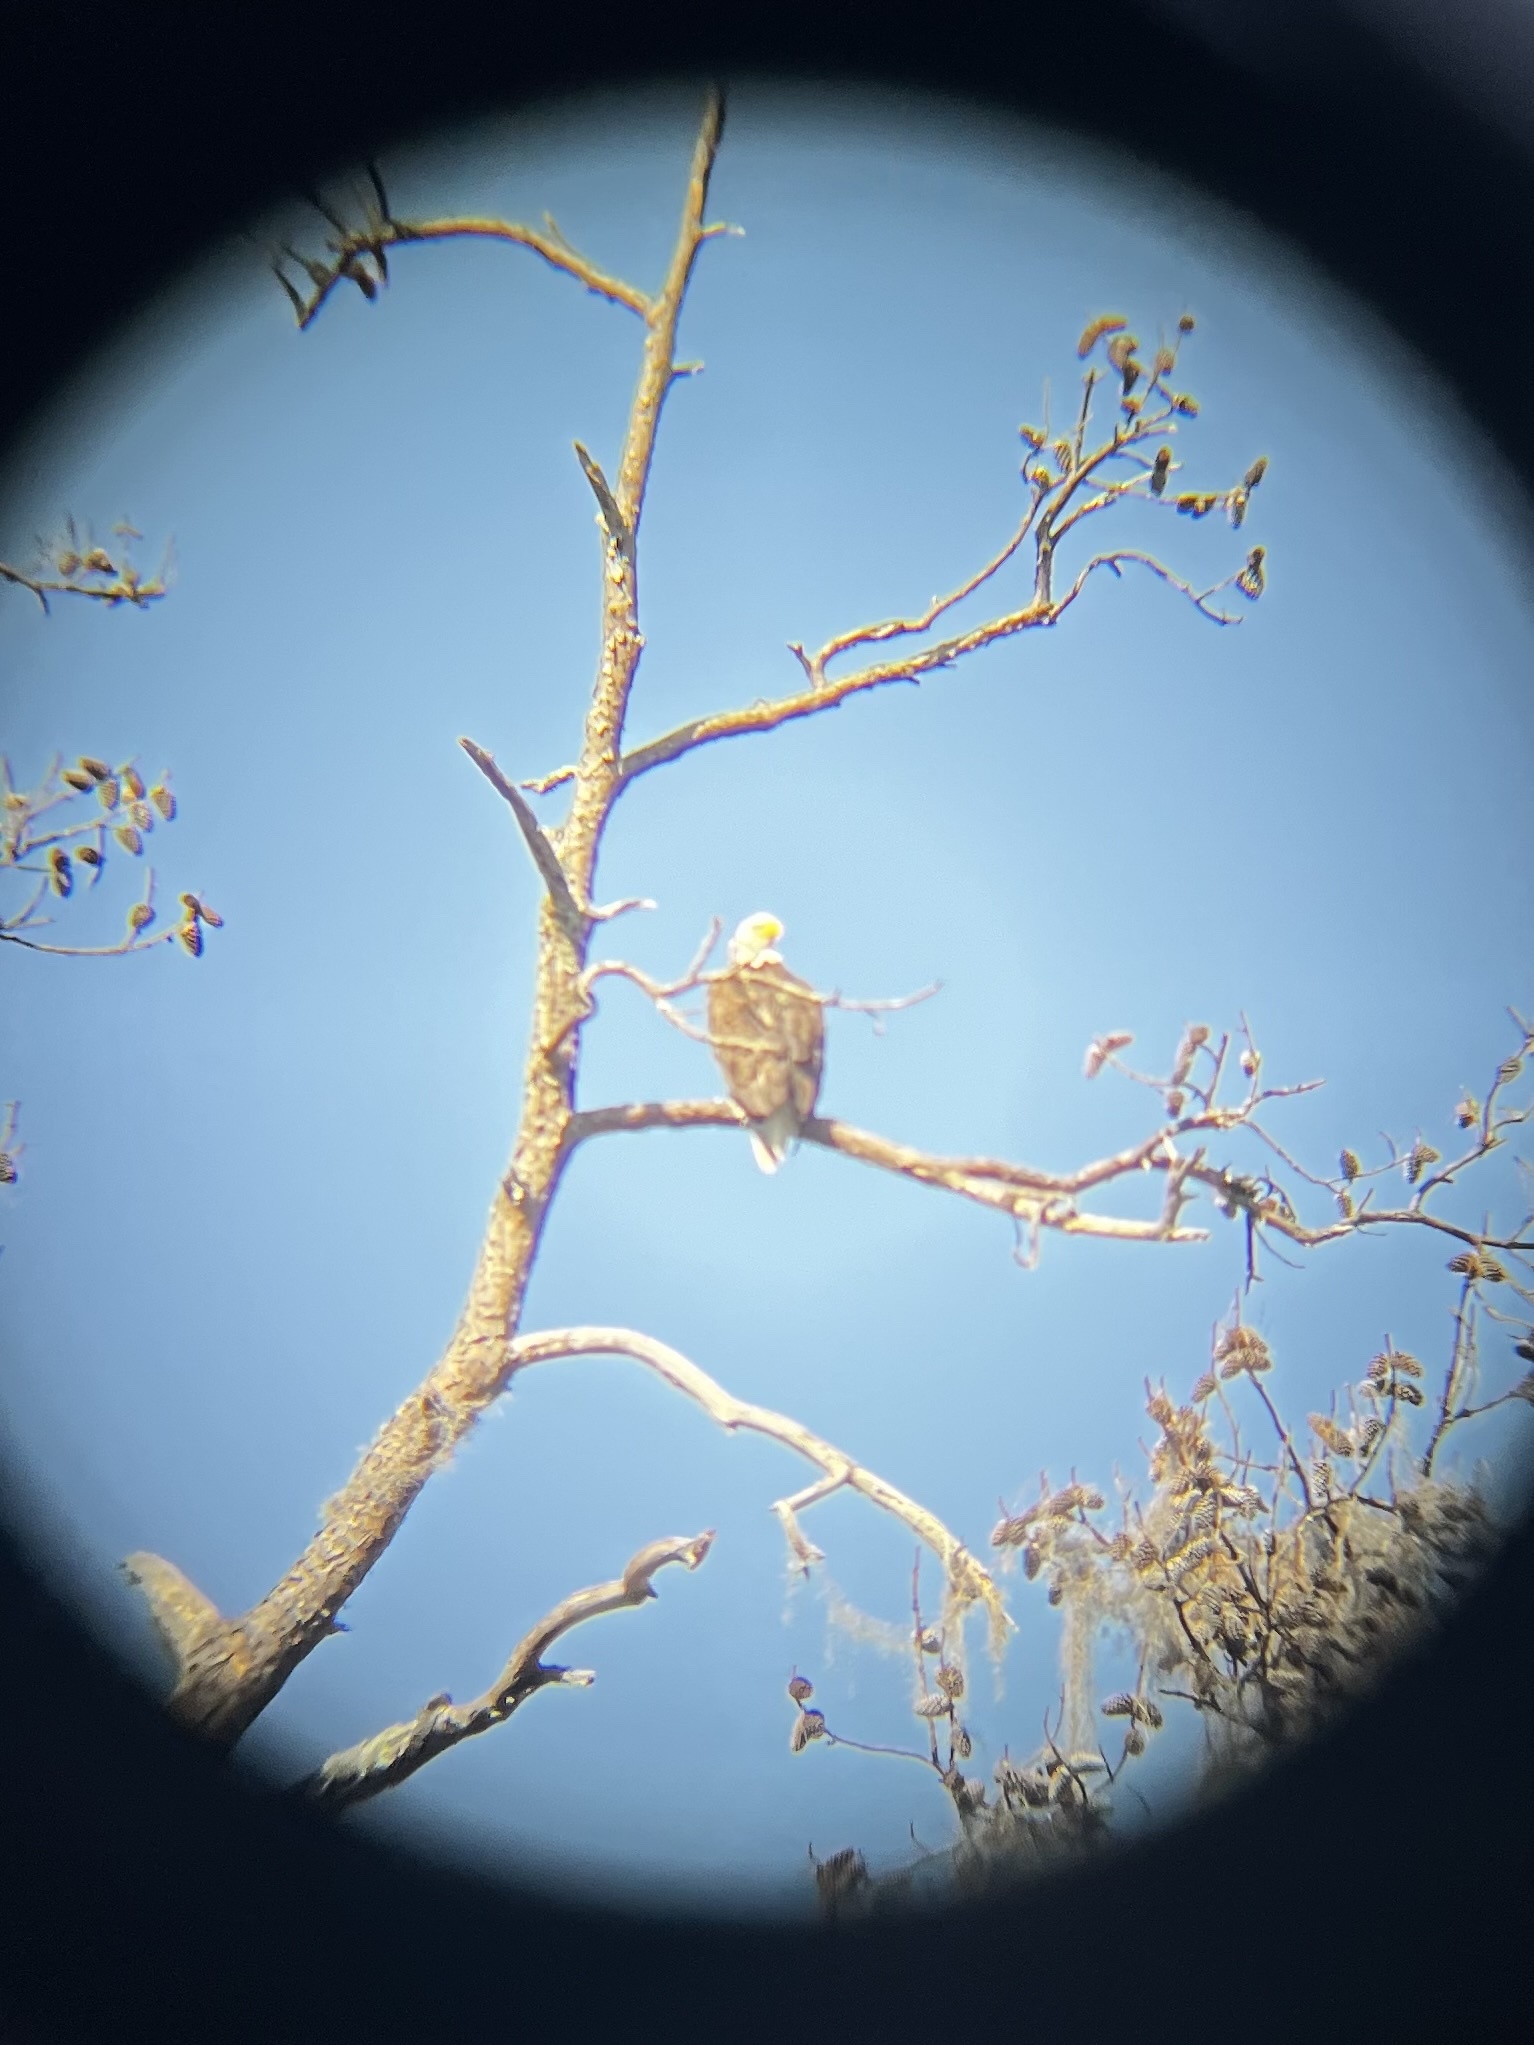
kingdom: Animalia
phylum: Chordata
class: Aves
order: Accipitriformes
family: Accipitridae
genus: Haliaeetus
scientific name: Haliaeetus leucocephalus
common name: Bald eagle
